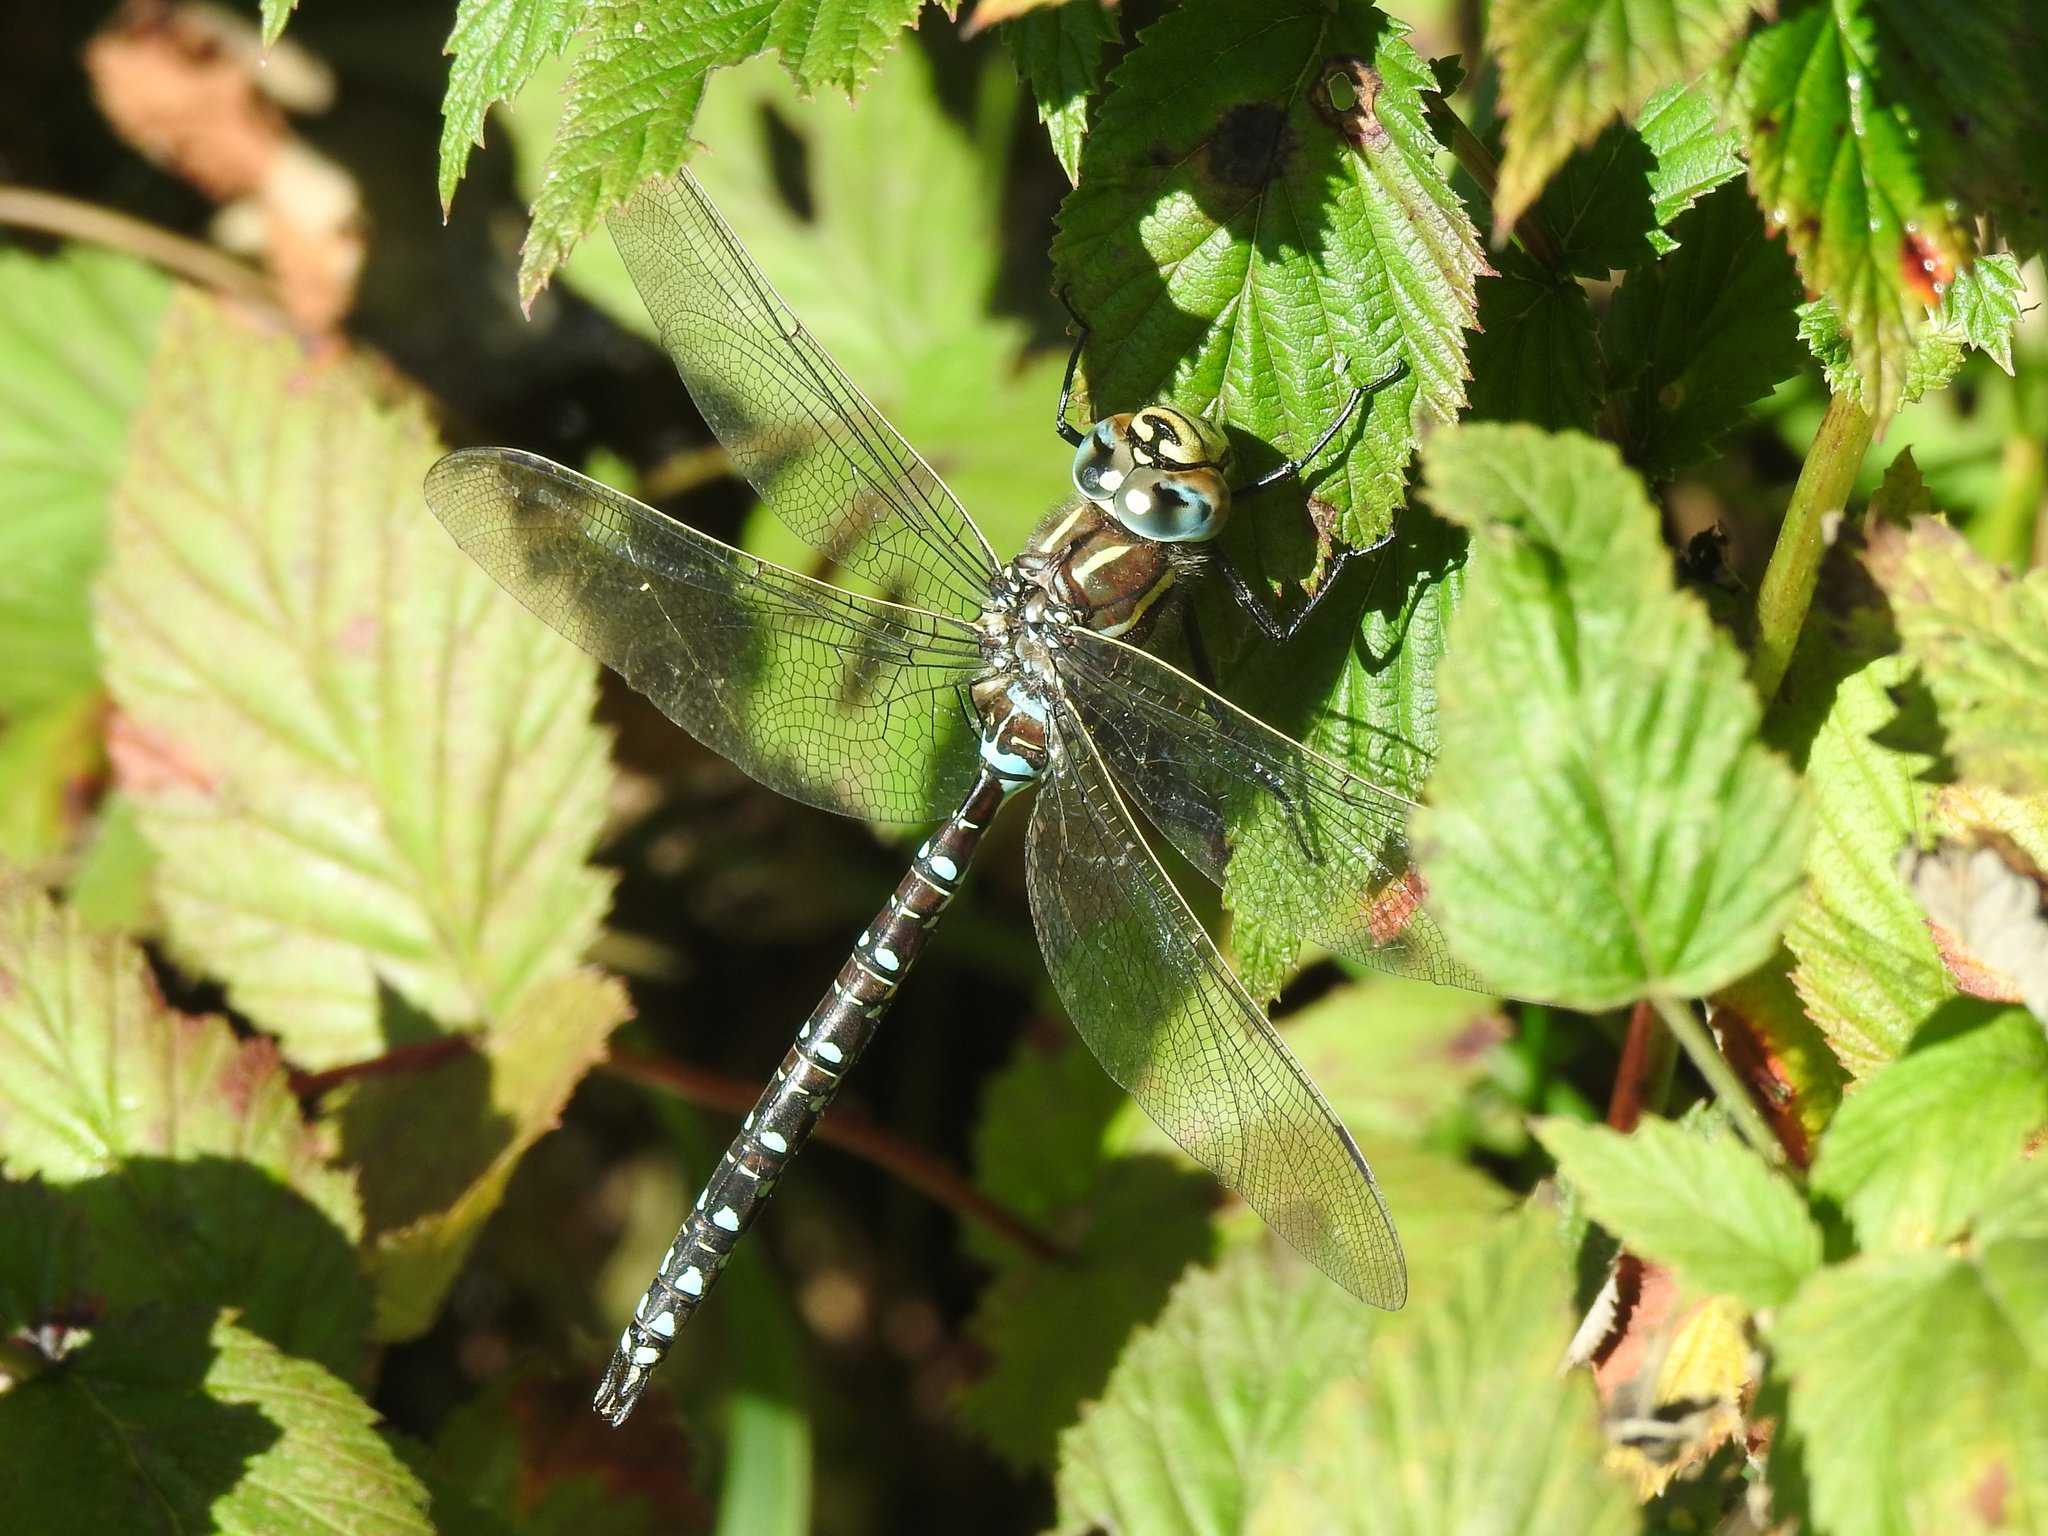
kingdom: Animalia
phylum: Arthropoda
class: Insecta
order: Odonata
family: Aeshnidae
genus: Aeshna
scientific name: Aeshna juncea
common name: Moorland hawker
